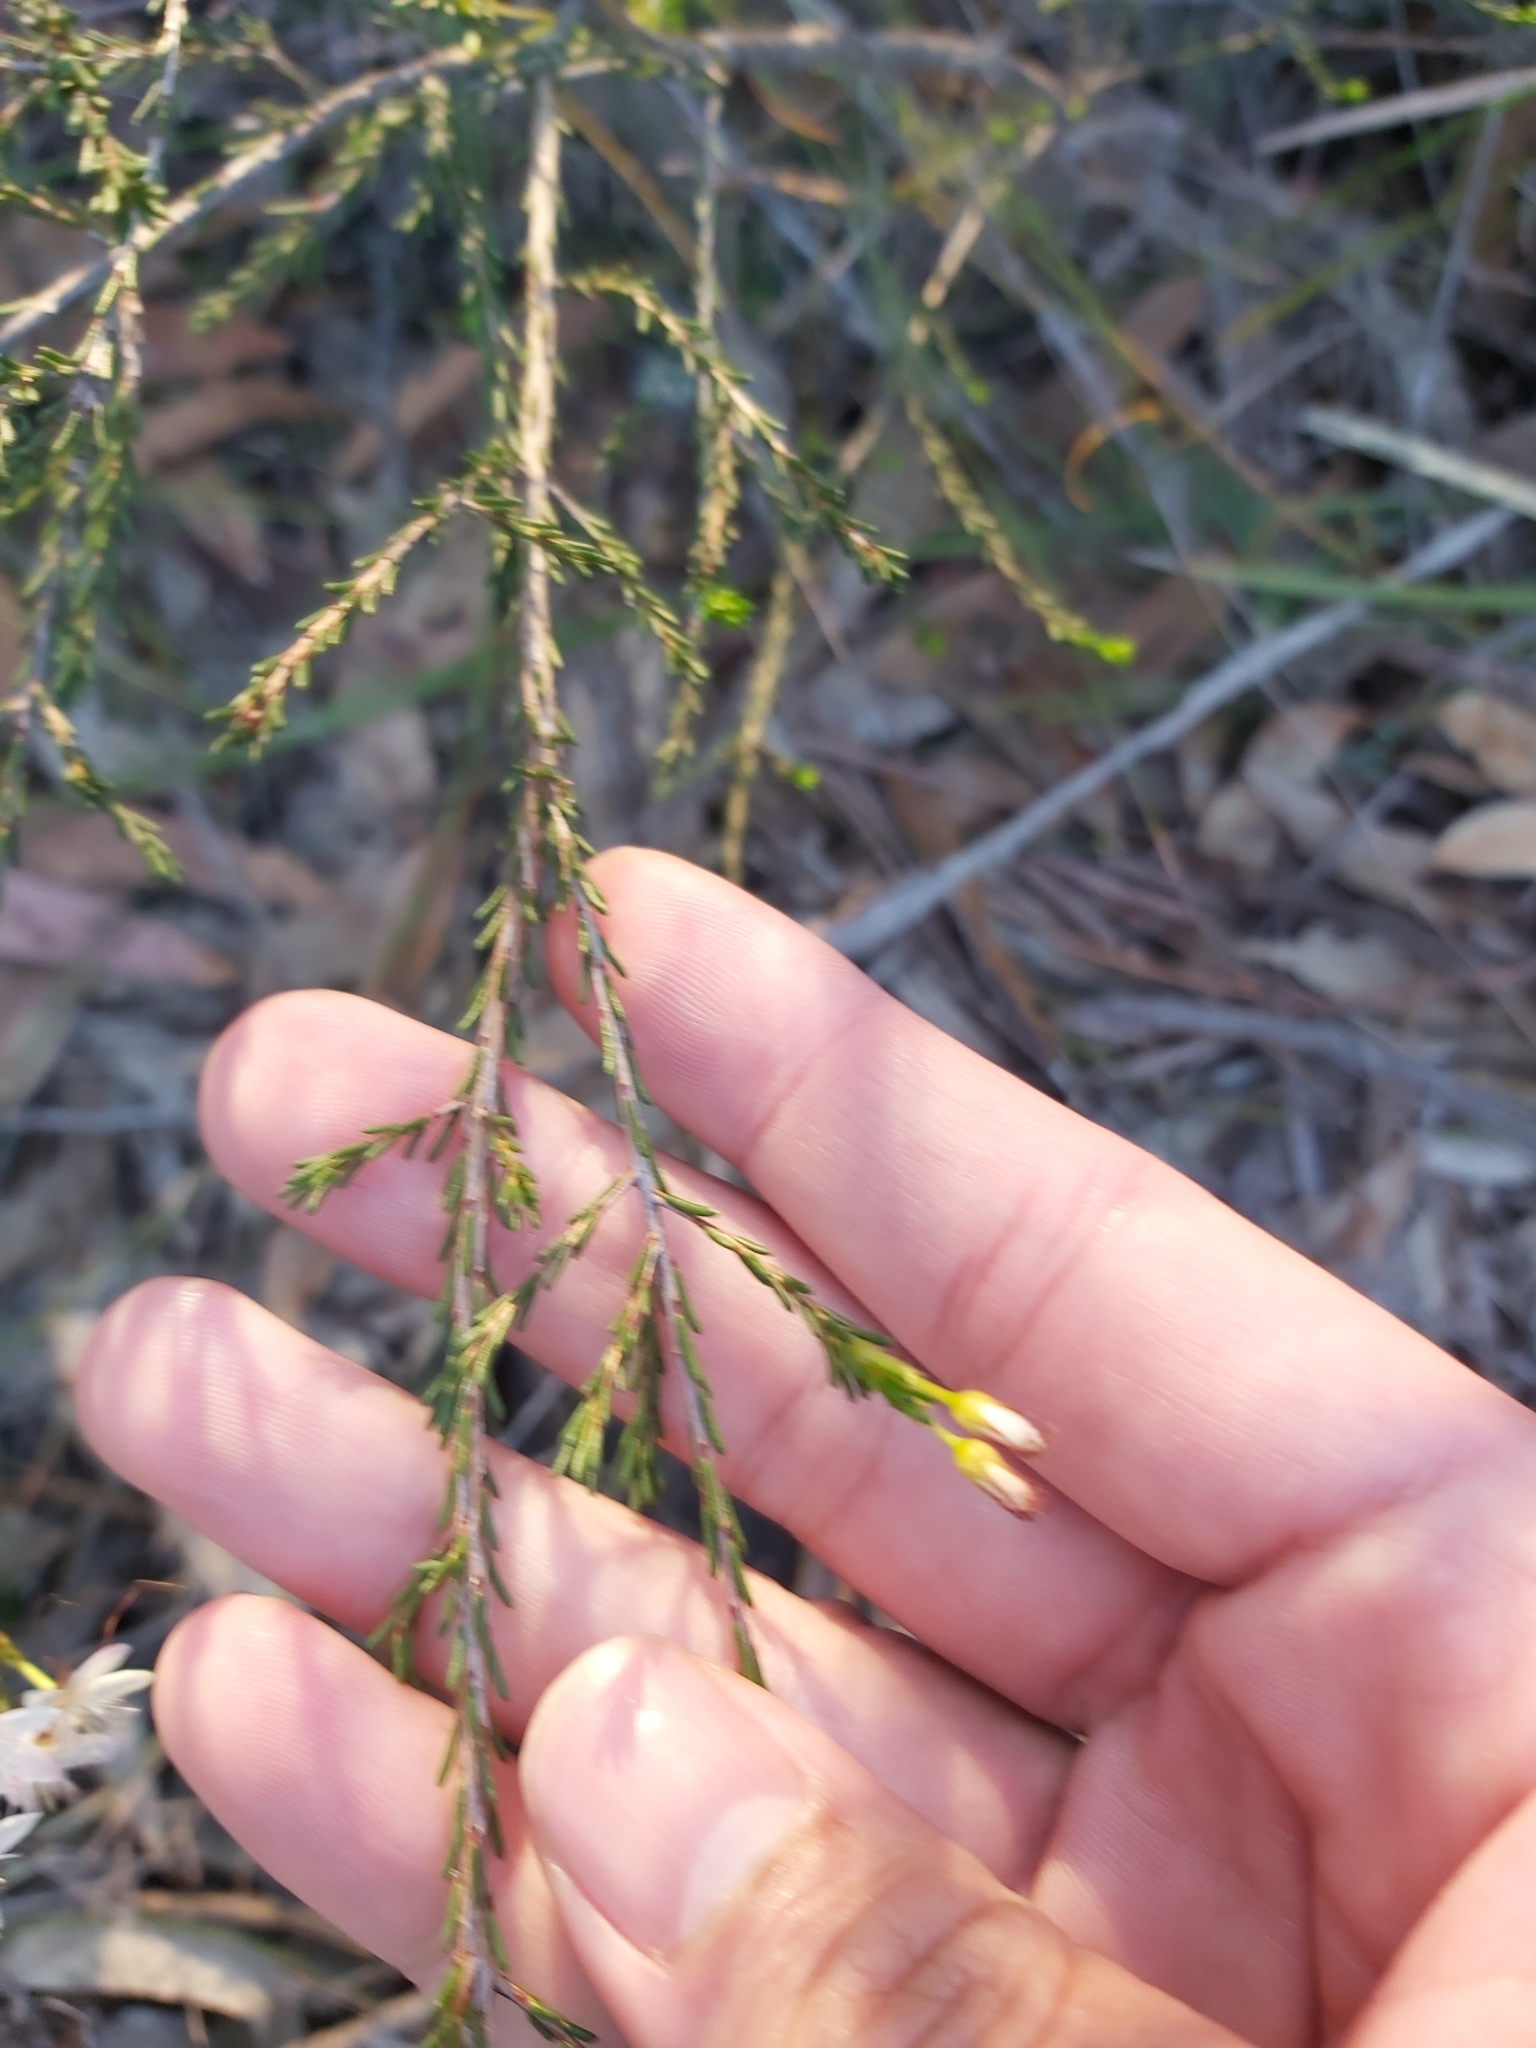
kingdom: Plantae
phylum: Tracheophyta
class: Magnoliopsida
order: Myrtales
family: Myrtaceae
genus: Calytrix
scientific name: Calytrix tetragona
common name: Common fringe myrtle
